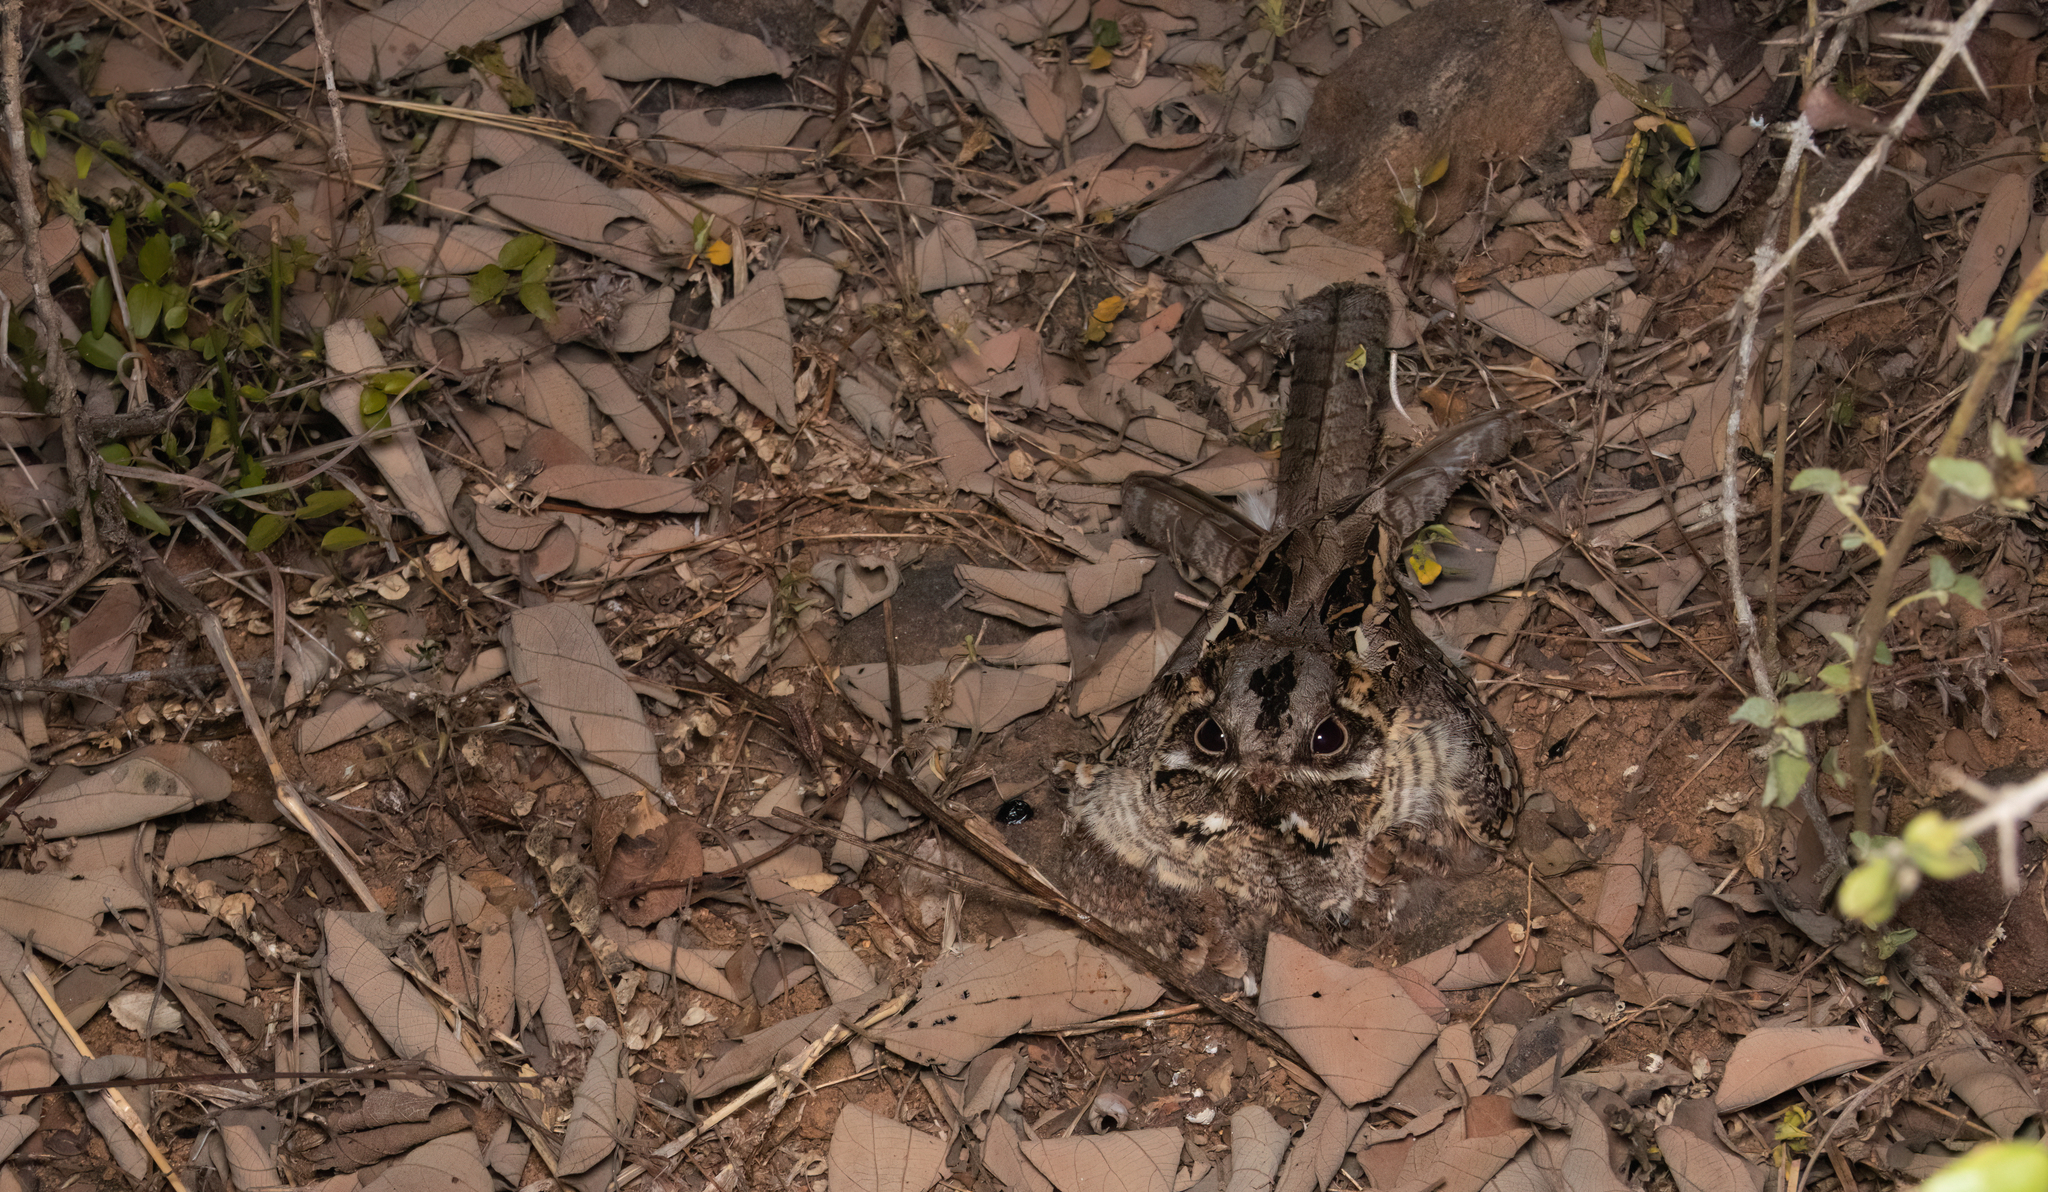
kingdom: Animalia
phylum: Chordata
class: Aves
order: Caprimulgiformes
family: Caprimulgidae
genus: Caprimulgus
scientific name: Caprimulgus asiaticus
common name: Indian nightjar
